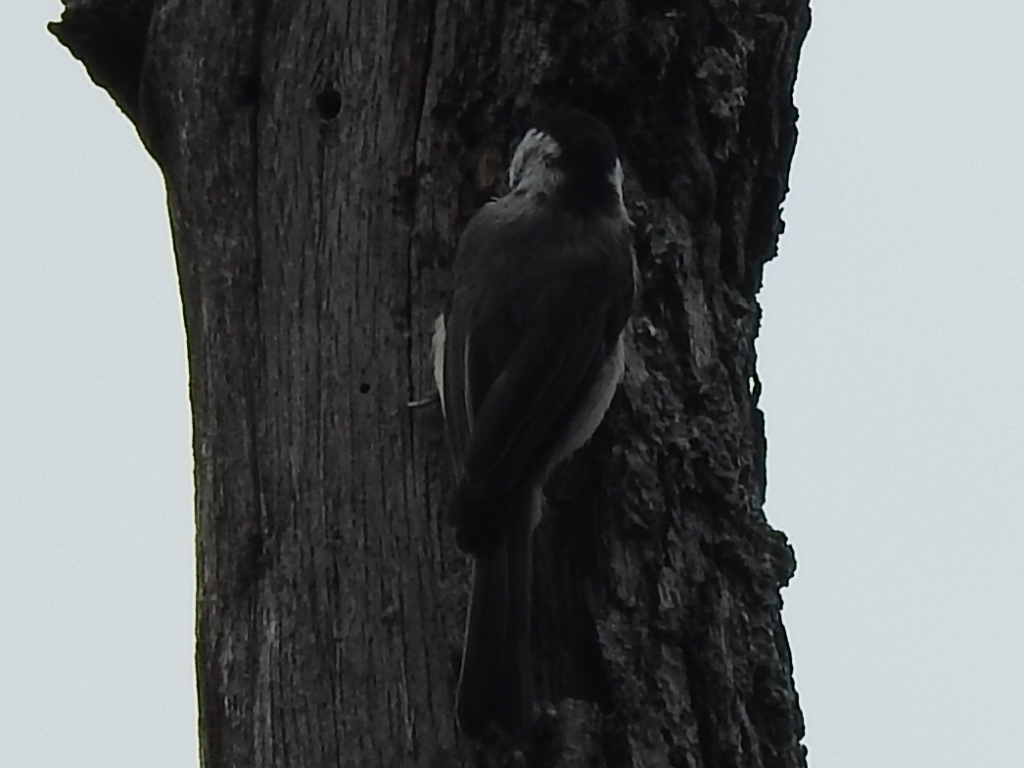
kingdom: Animalia
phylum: Chordata
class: Aves
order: Passeriformes
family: Paridae
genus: Poecile
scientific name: Poecile carolinensis
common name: Carolina chickadee
